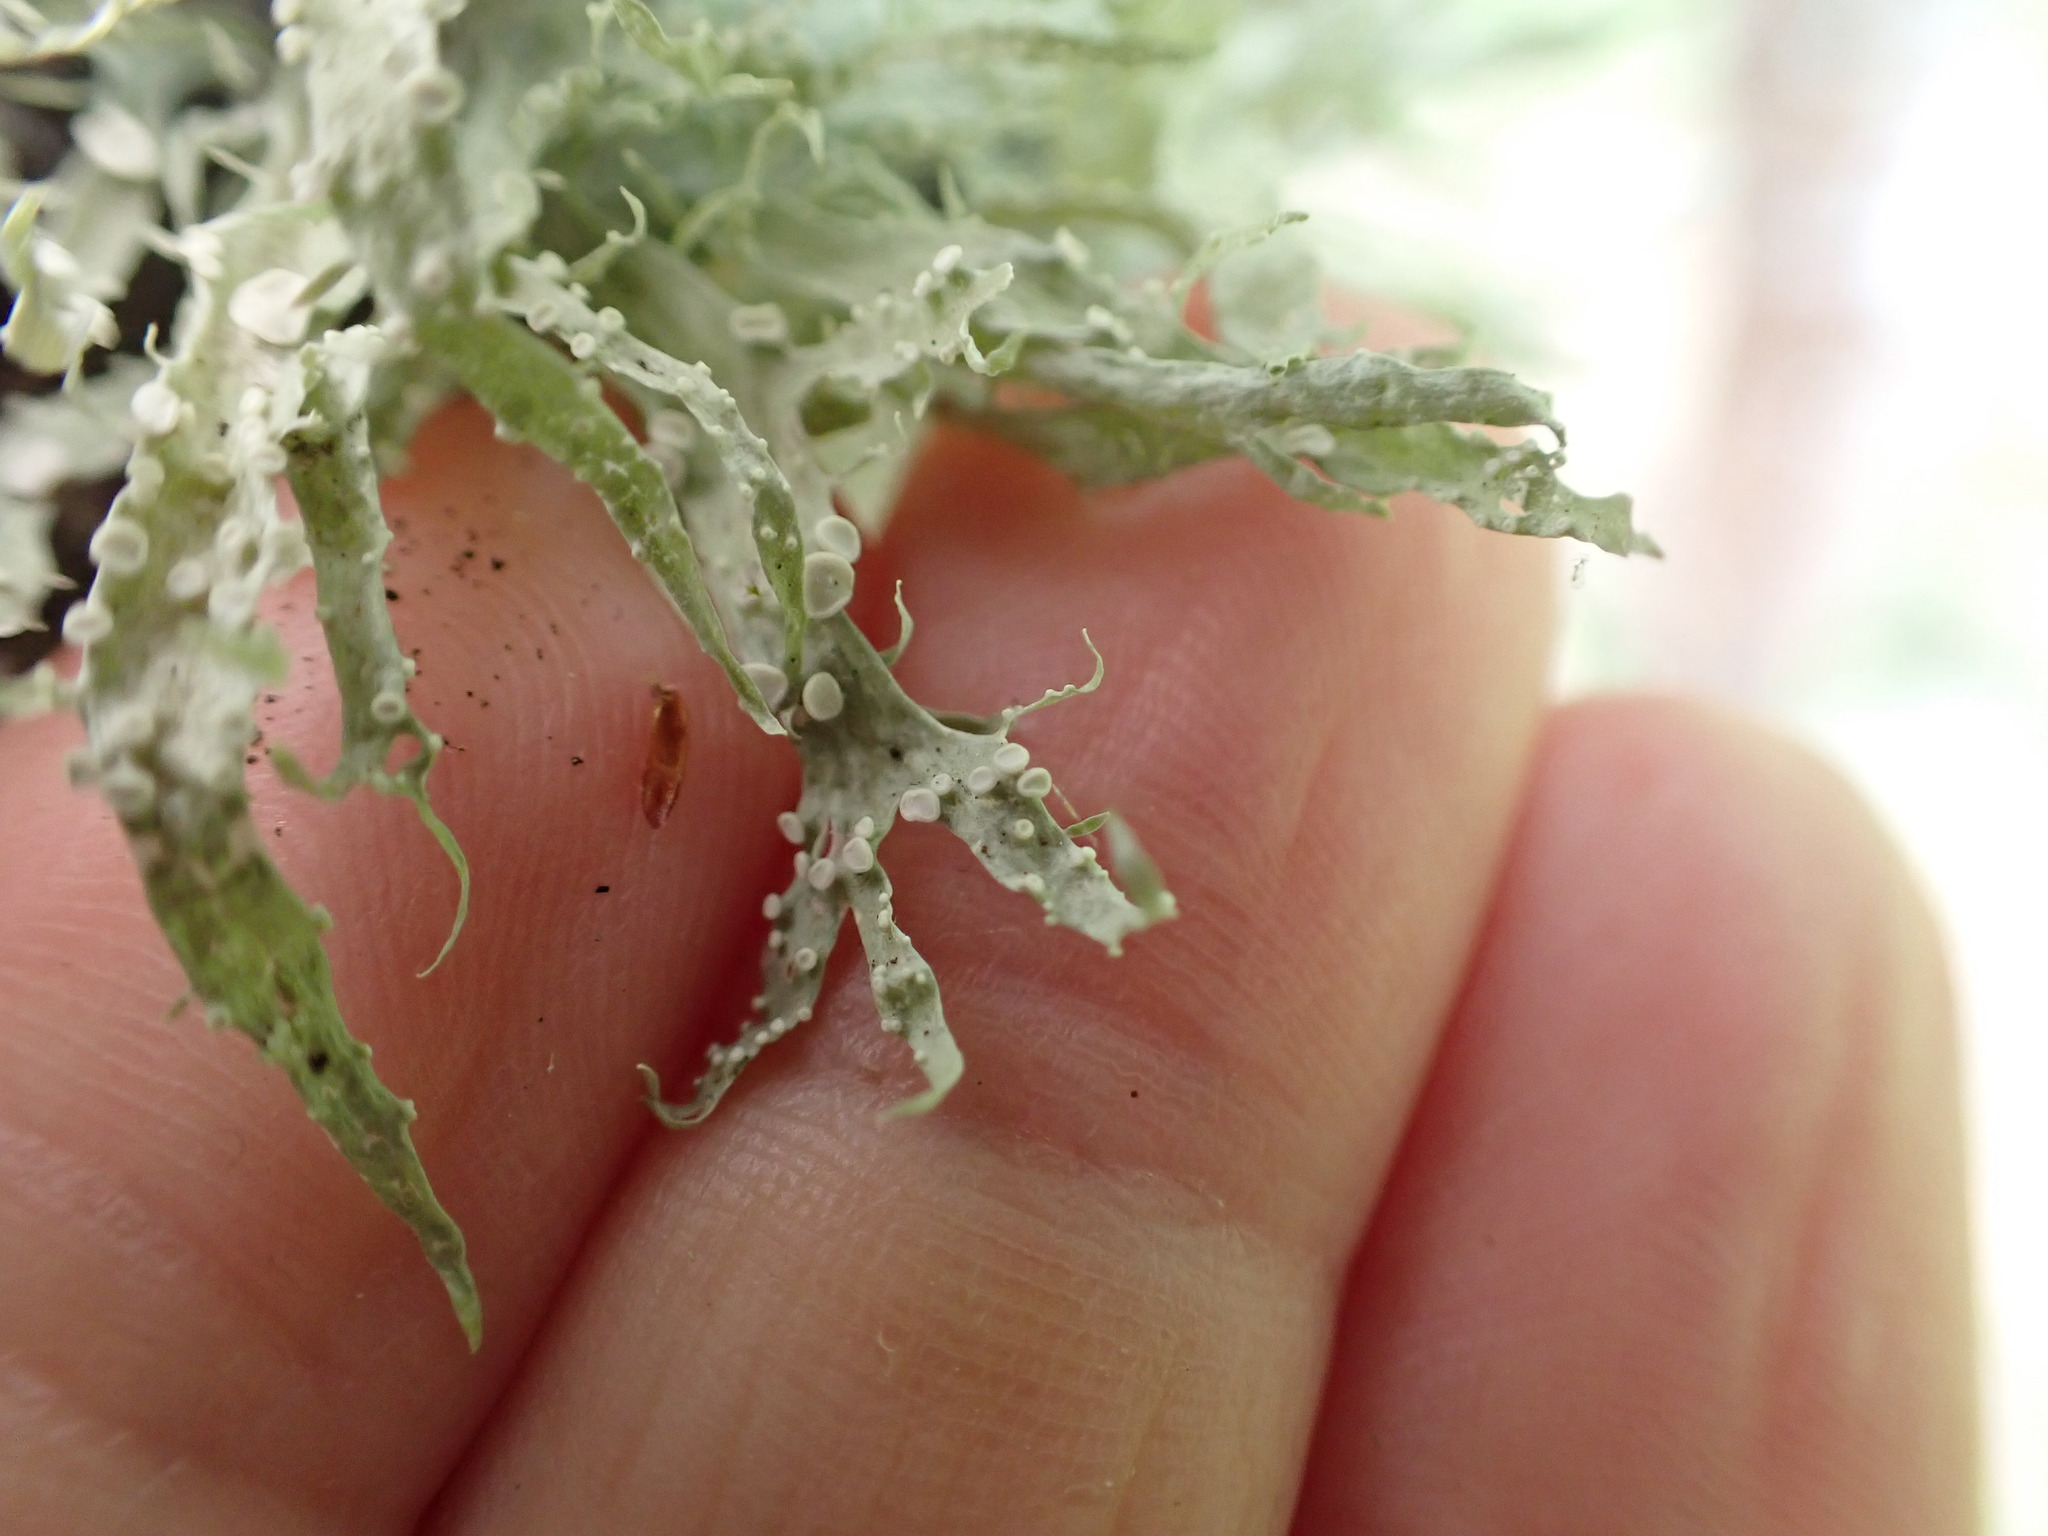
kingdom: Fungi
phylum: Ascomycota
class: Lecanoromycetes
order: Lecanorales
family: Ramalinaceae
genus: Ramalina
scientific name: Ramalina celastri
